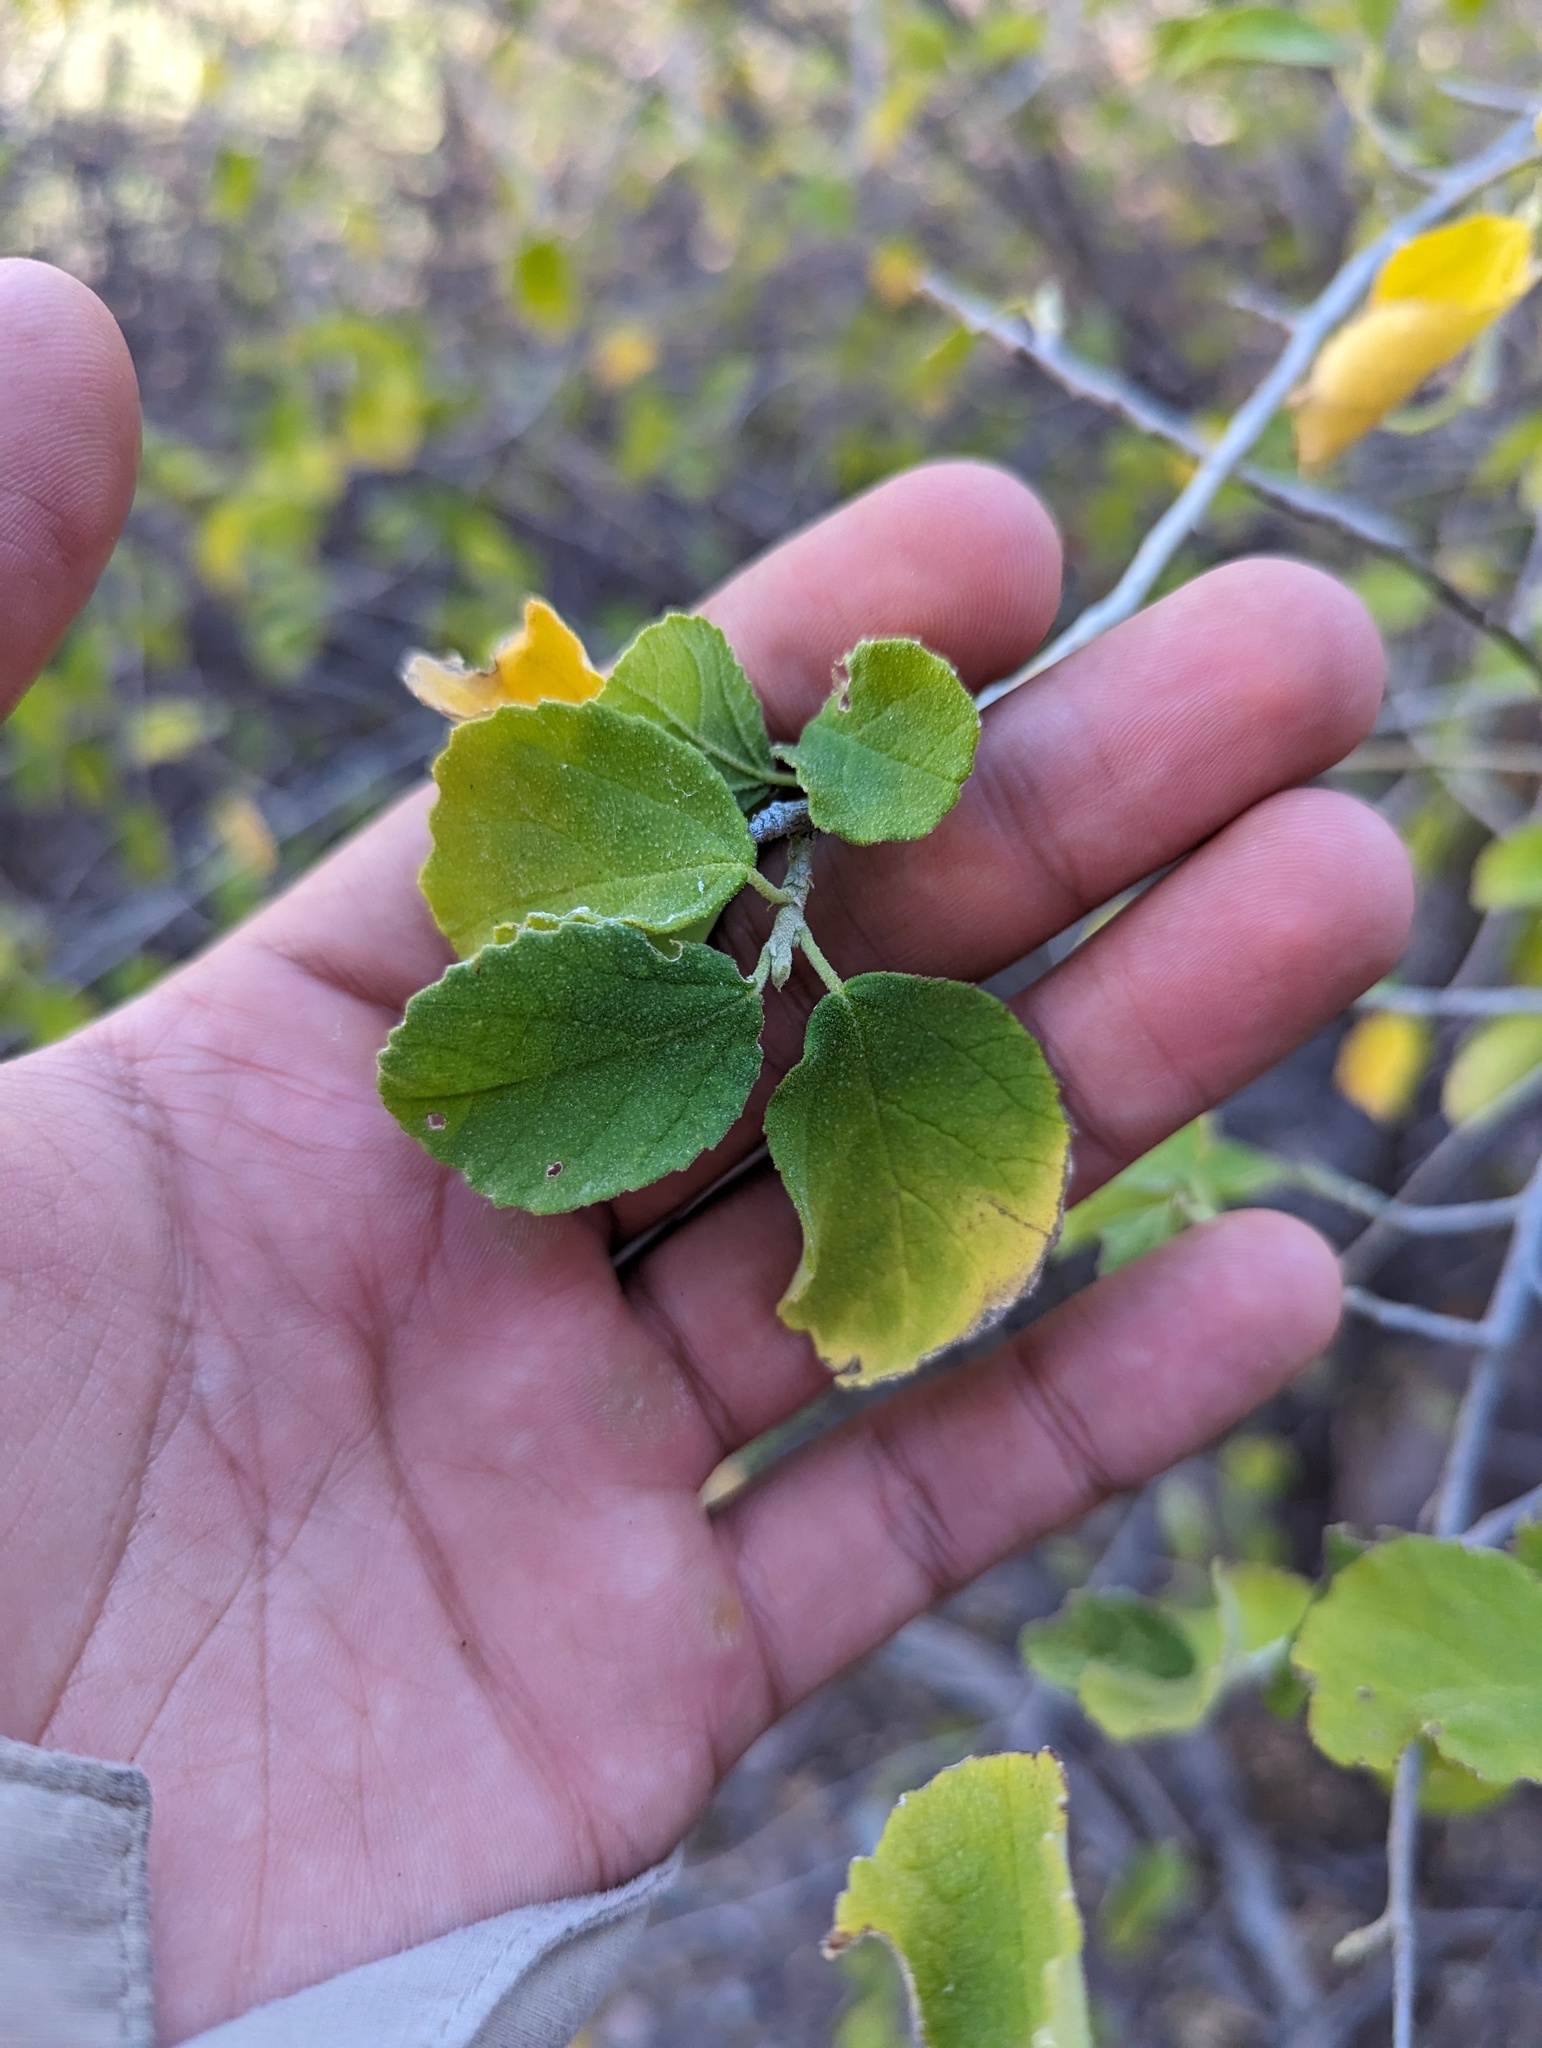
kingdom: Plantae
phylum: Tracheophyta
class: Magnoliopsida
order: Malpighiales
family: Euphorbiaceae
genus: Bernardia
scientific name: Bernardia viridis
